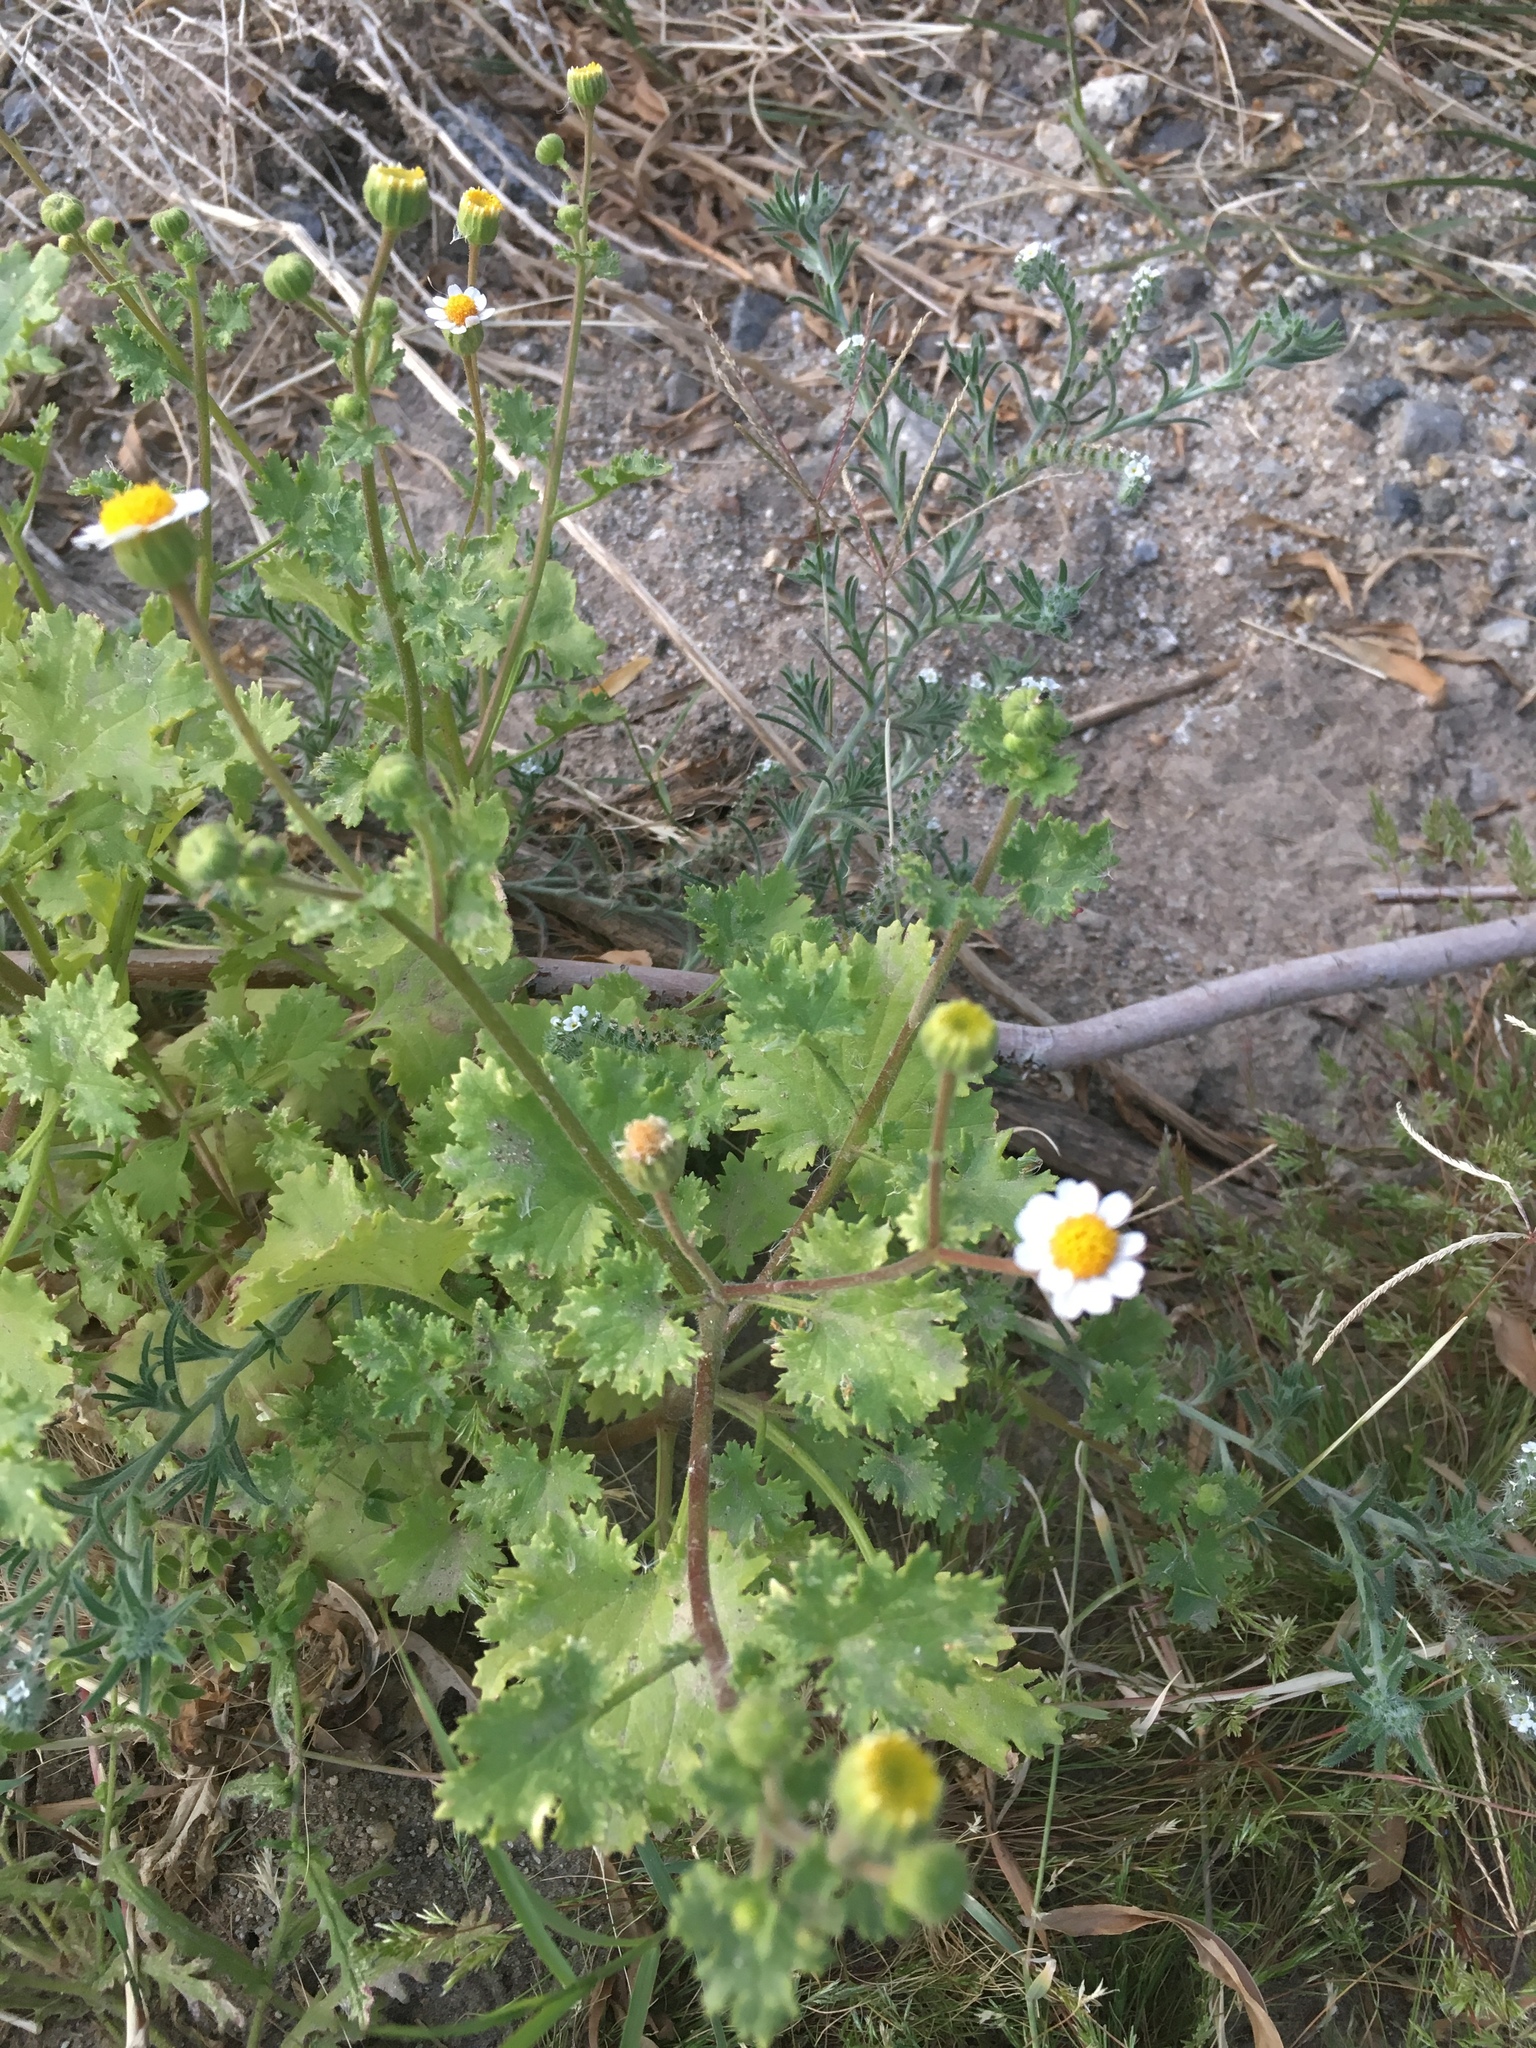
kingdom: Plantae
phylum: Tracheophyta
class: Magnoliopsida
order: Asterales
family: Asteraceae
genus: Laphamia
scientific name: Laphamia emoryi
